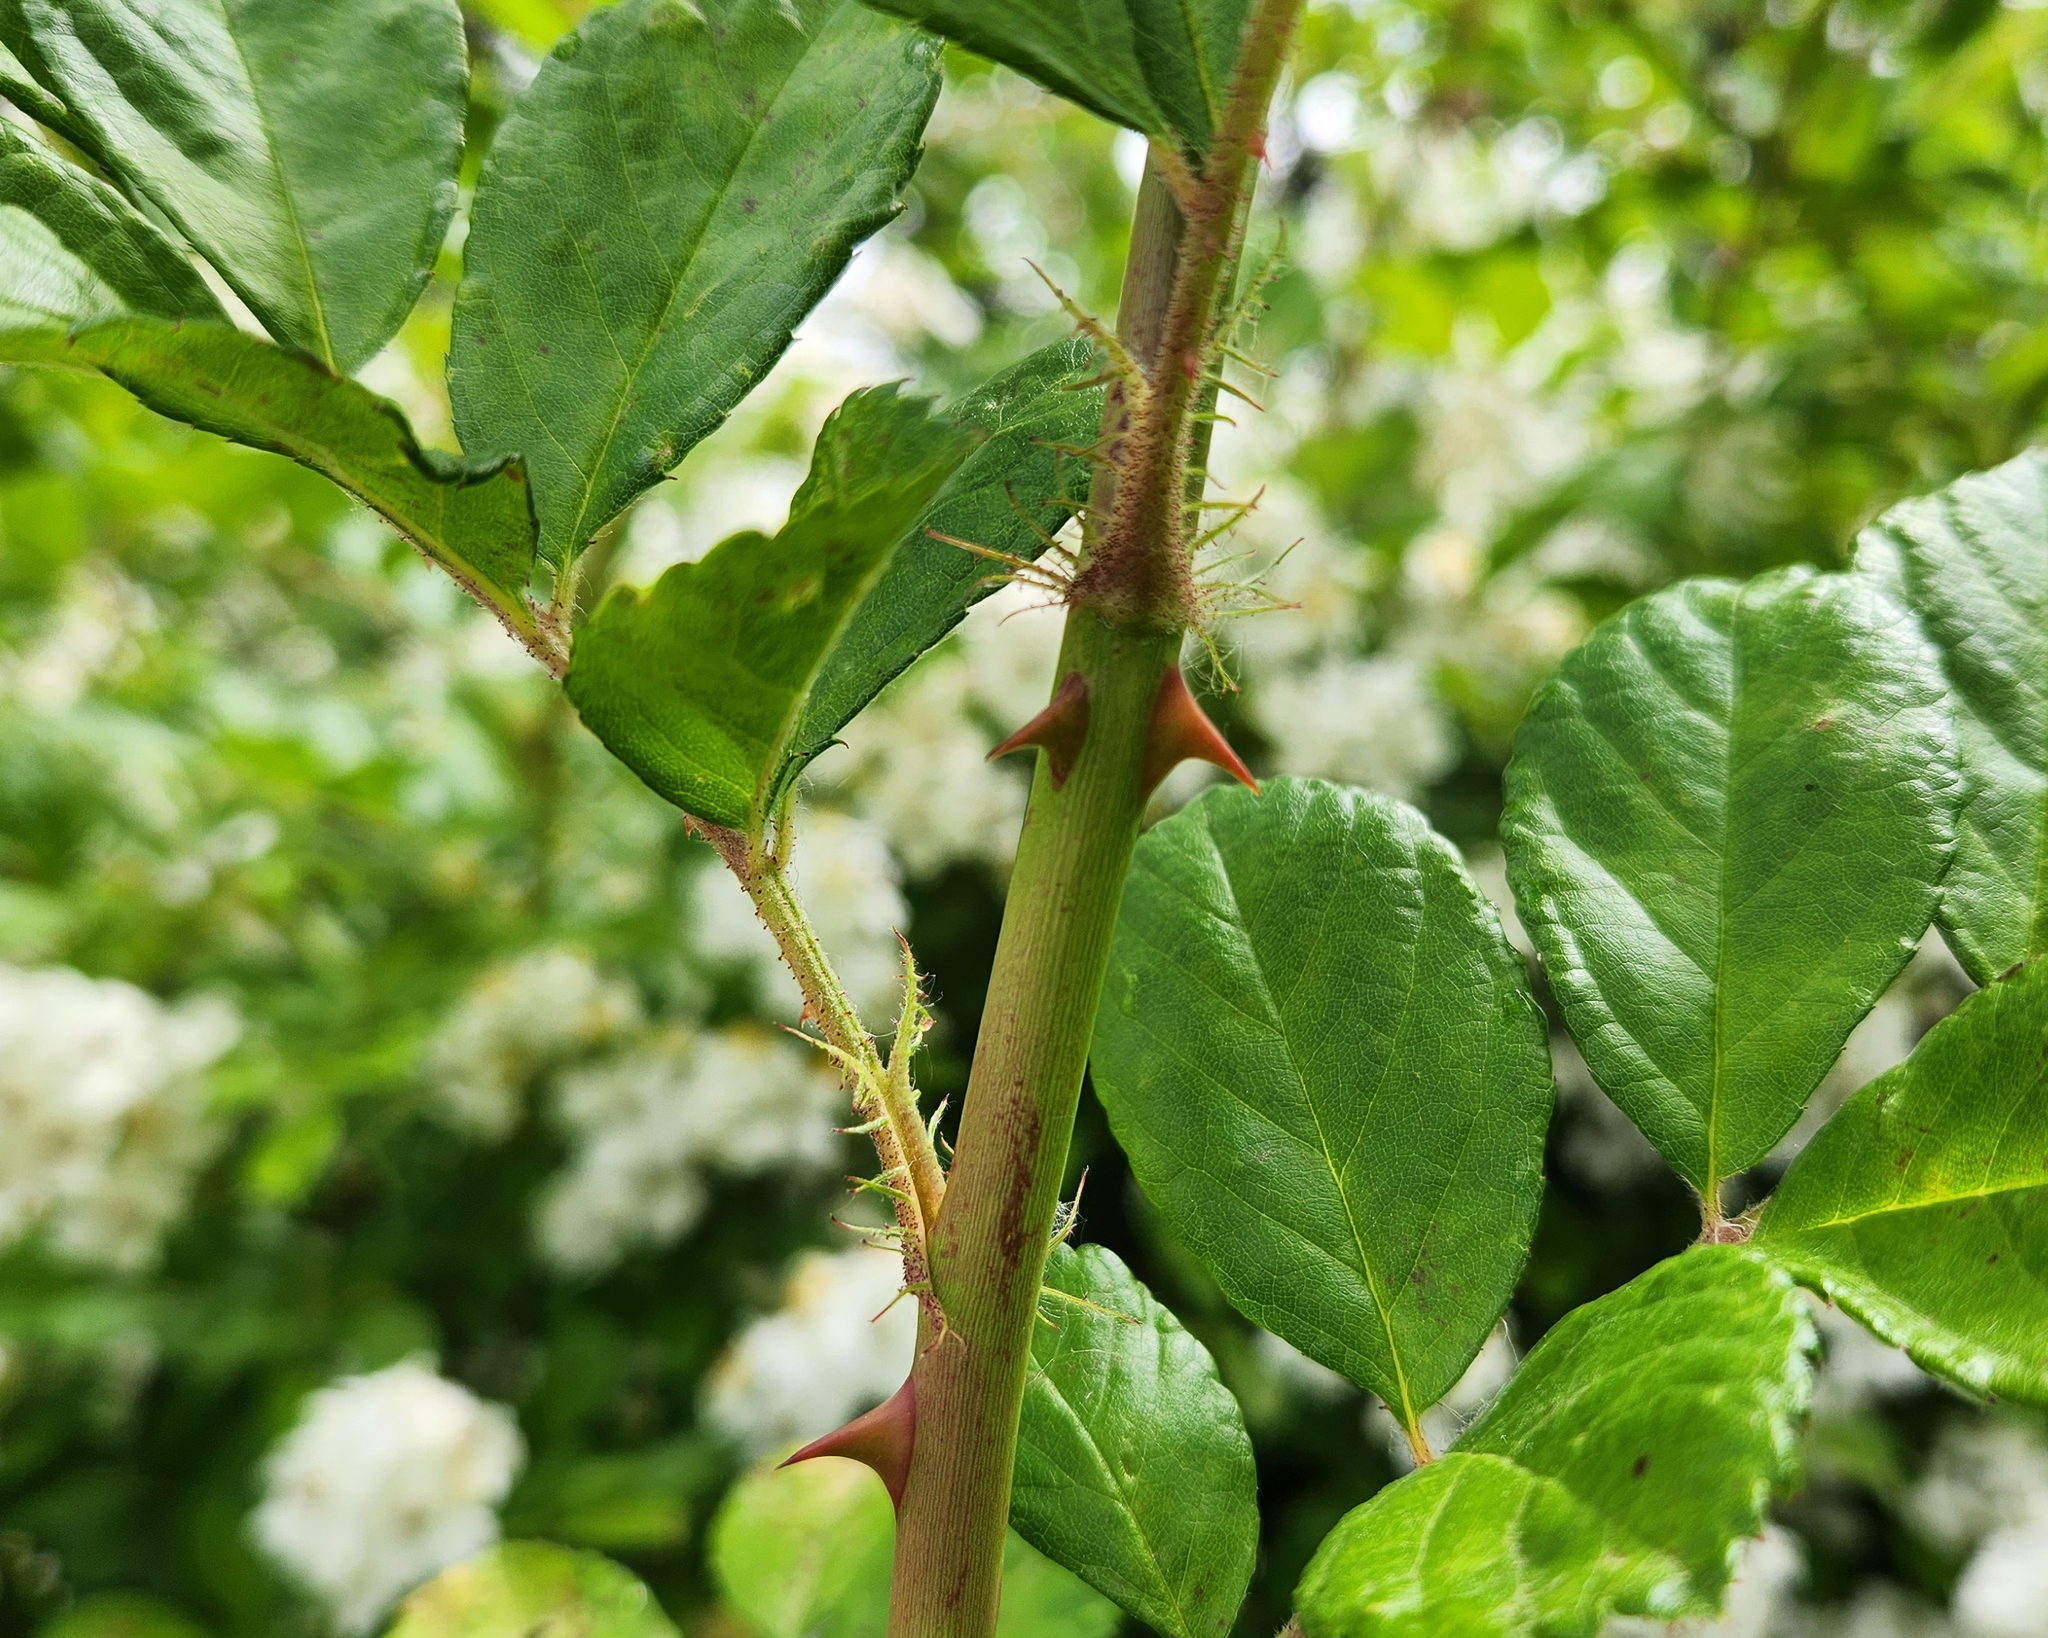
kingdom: Plantae
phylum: Tracheophyta
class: Magnoliopsida
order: Rosales
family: Rosaceae
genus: Rosa
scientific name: Rosa multiflora
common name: Multiflora rose
